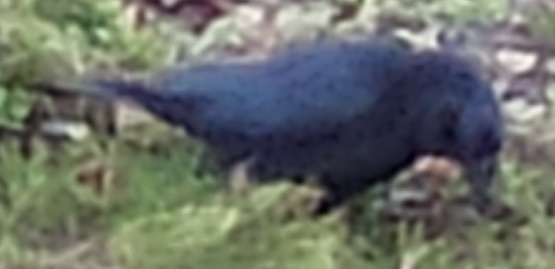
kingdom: Animalia
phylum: Chordata
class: Aves
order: Passeriformes
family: Corvidae
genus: Corvus
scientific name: Corvus corone
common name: Carrion crow
